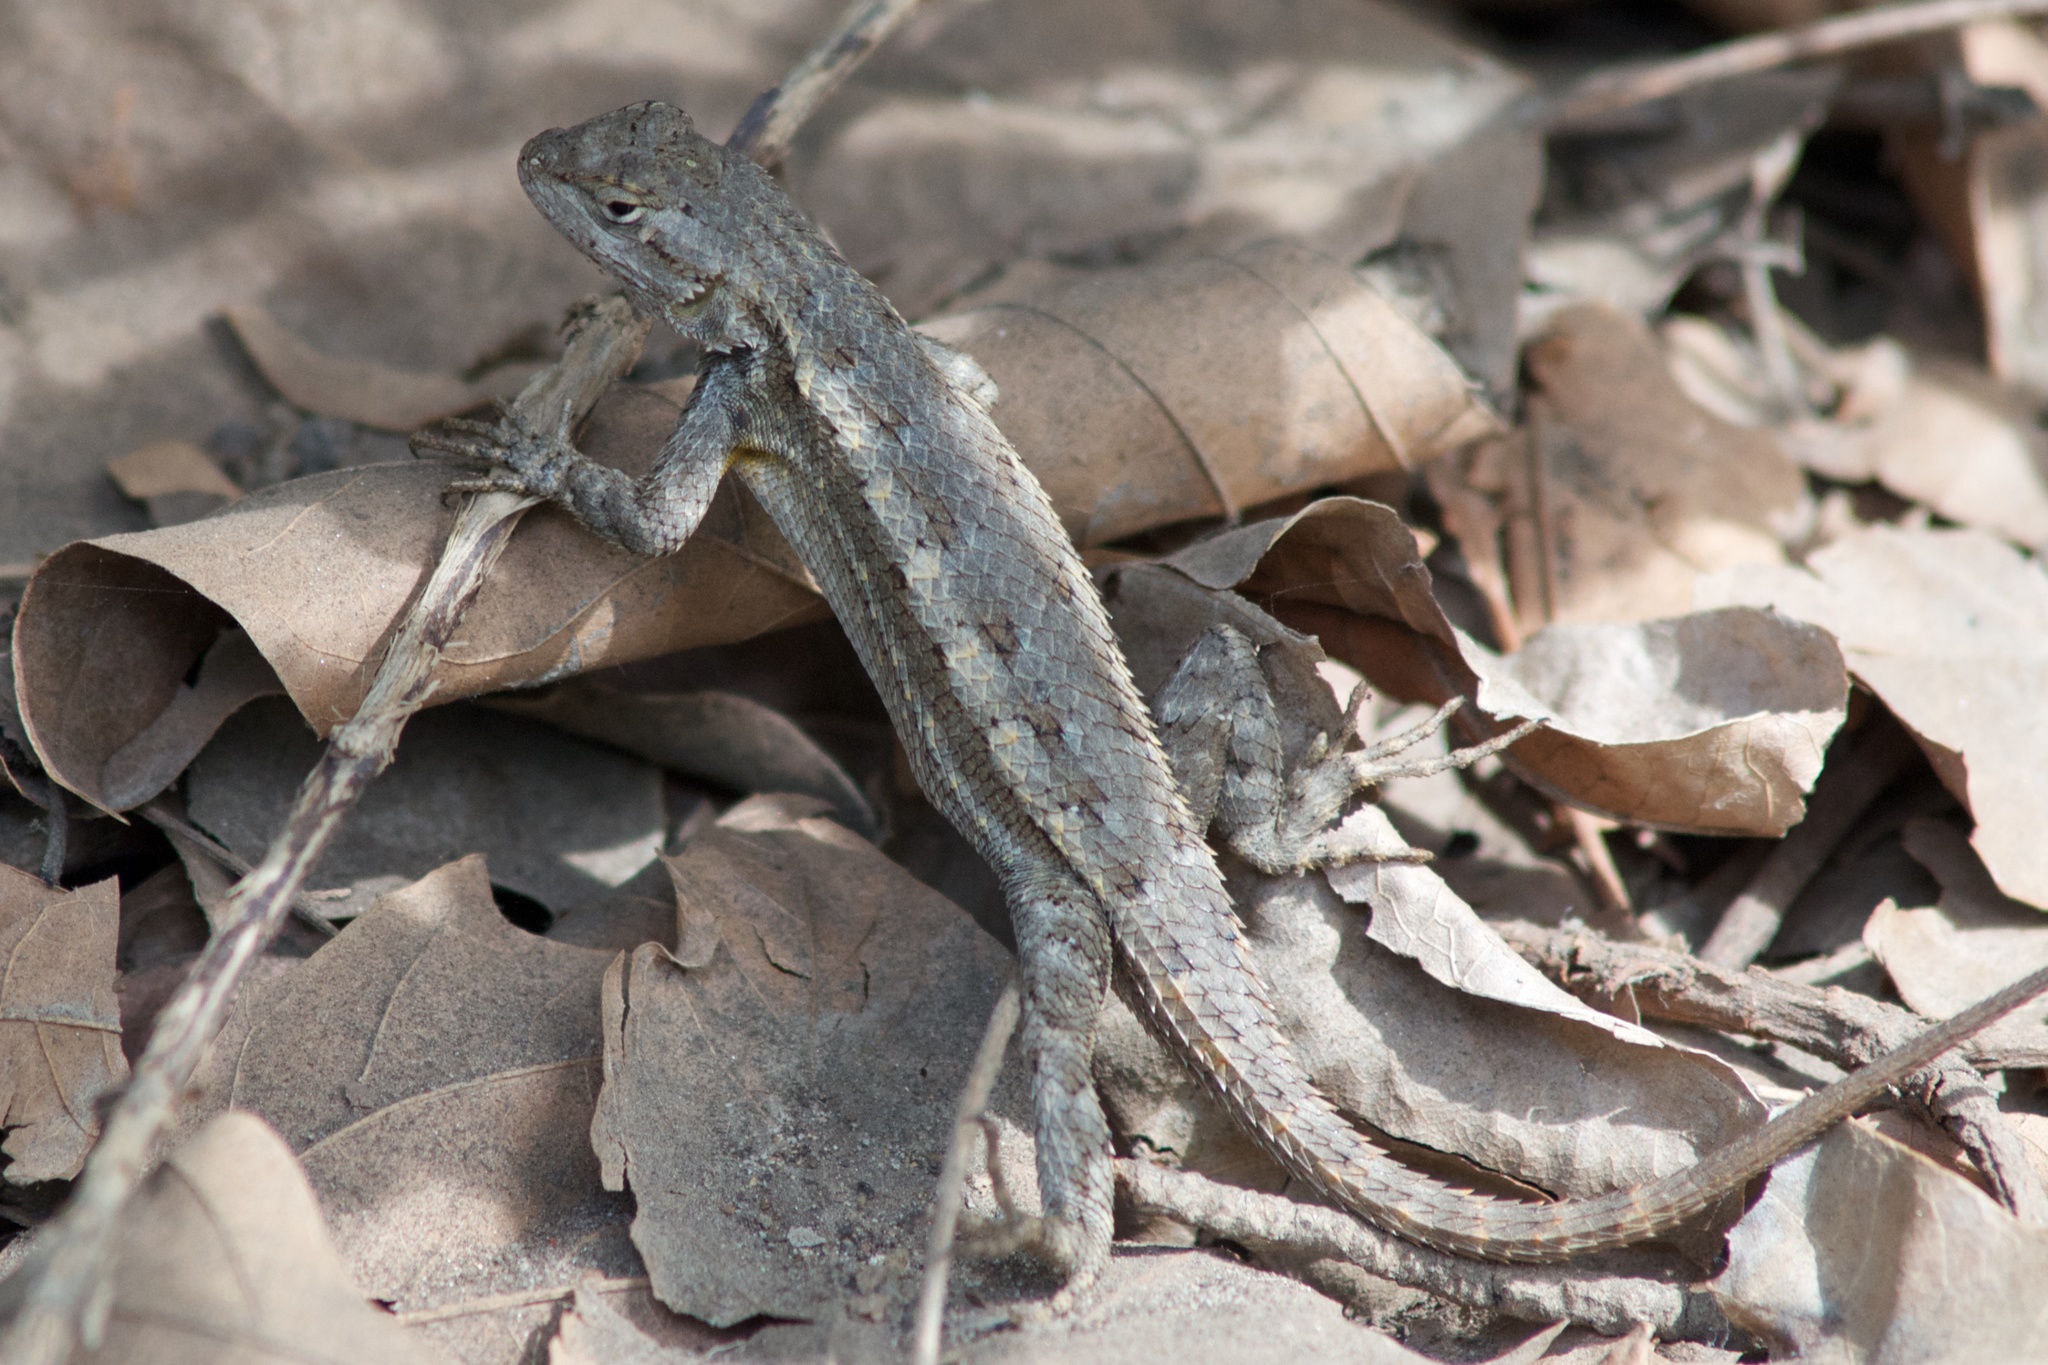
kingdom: Animalia
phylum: Chordata
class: Squamata
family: Phrynosomatidae
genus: Sceloporus
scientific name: Sceloporus occidentalis
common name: Western fence lizard
